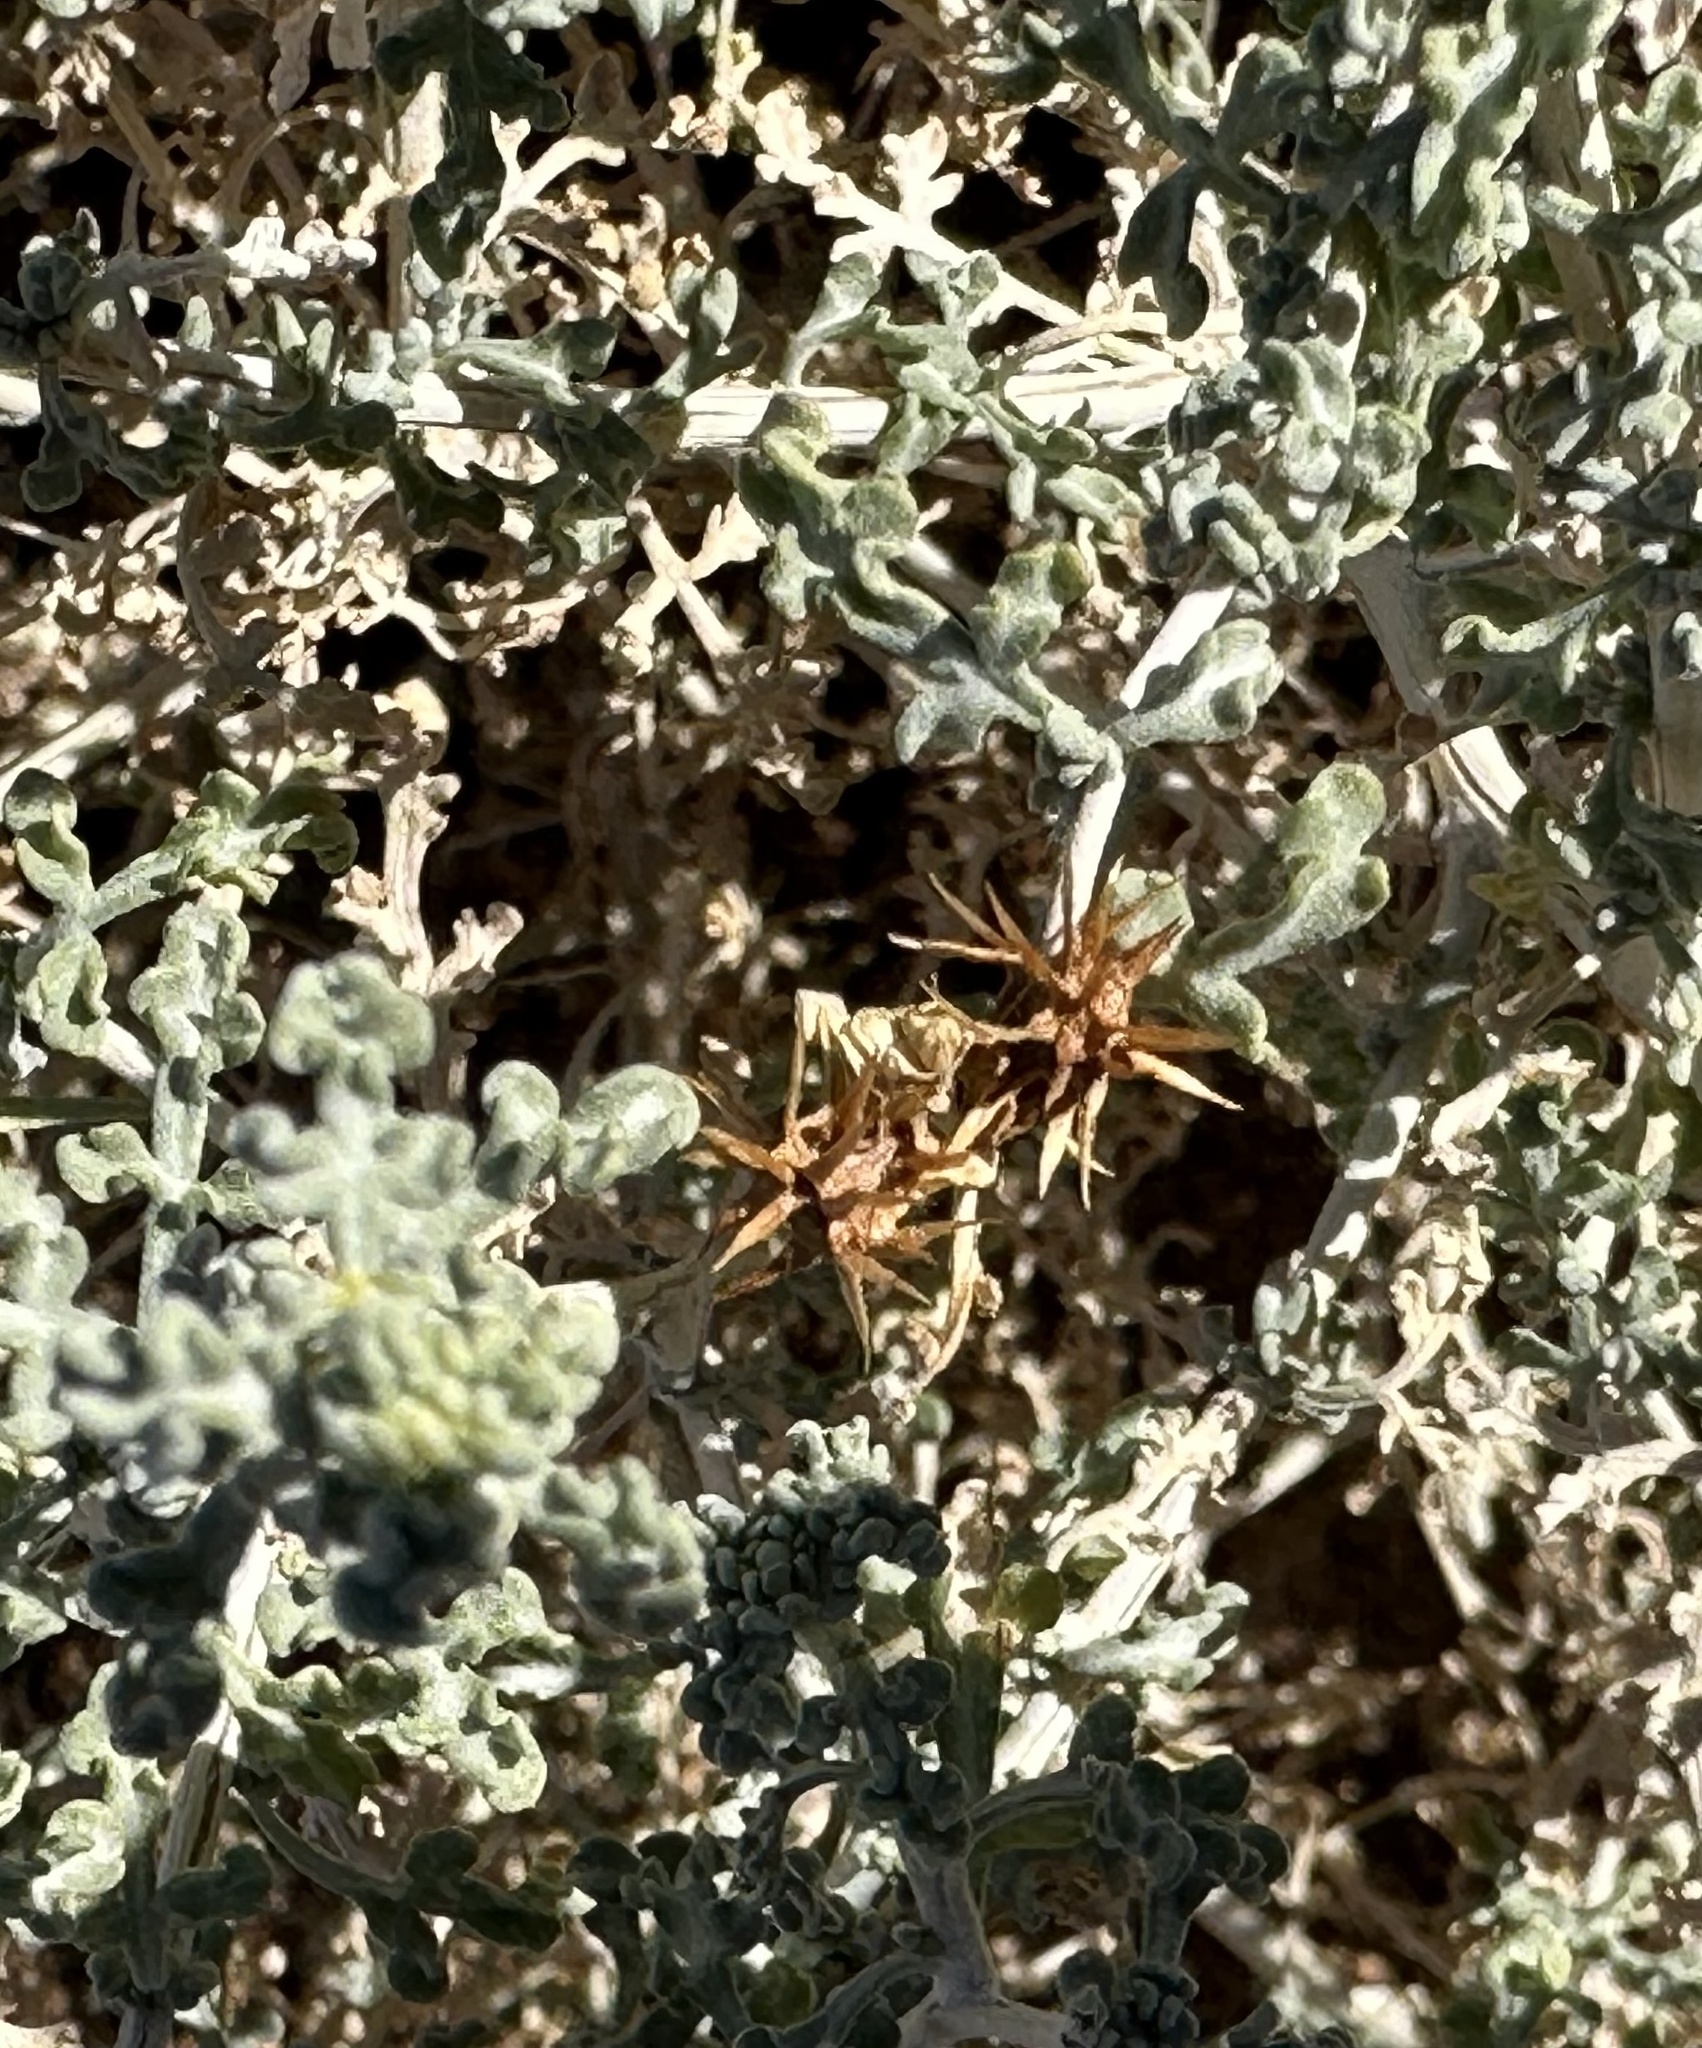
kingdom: Plantae
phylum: Tracheophyta
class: Magnoliopsida
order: Asterales
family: Asteraceae
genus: Ambrosia
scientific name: Ambrosia dumosa
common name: Bur-sage
